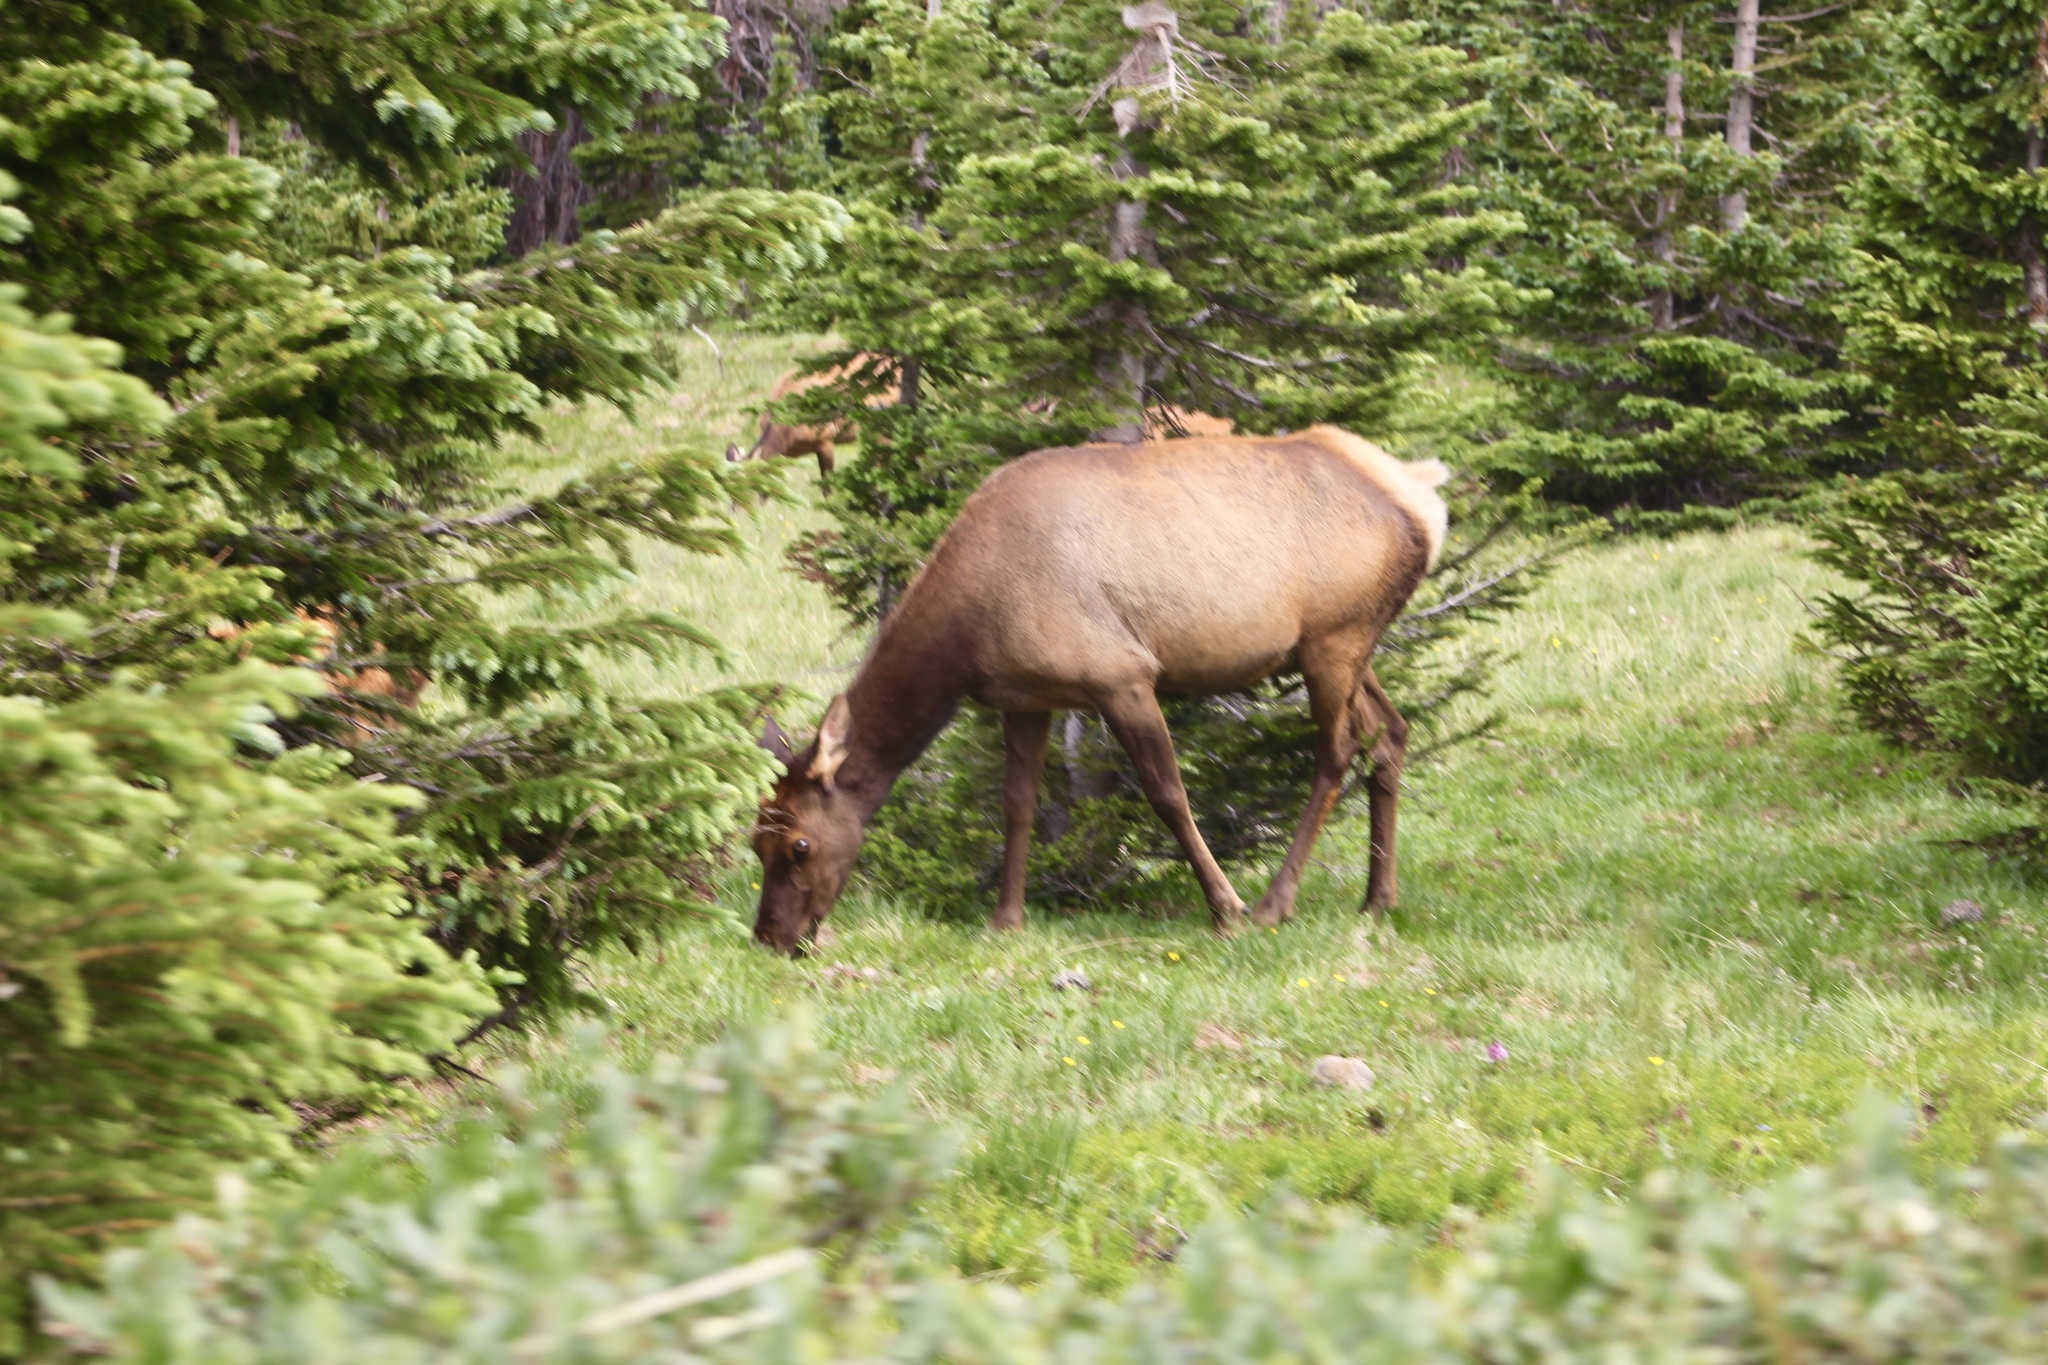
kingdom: Animalia
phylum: Chordata
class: Mammalia
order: Artiodactyla
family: Cervidae
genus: Cervus
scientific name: Cervus elaphus
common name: Red deer
